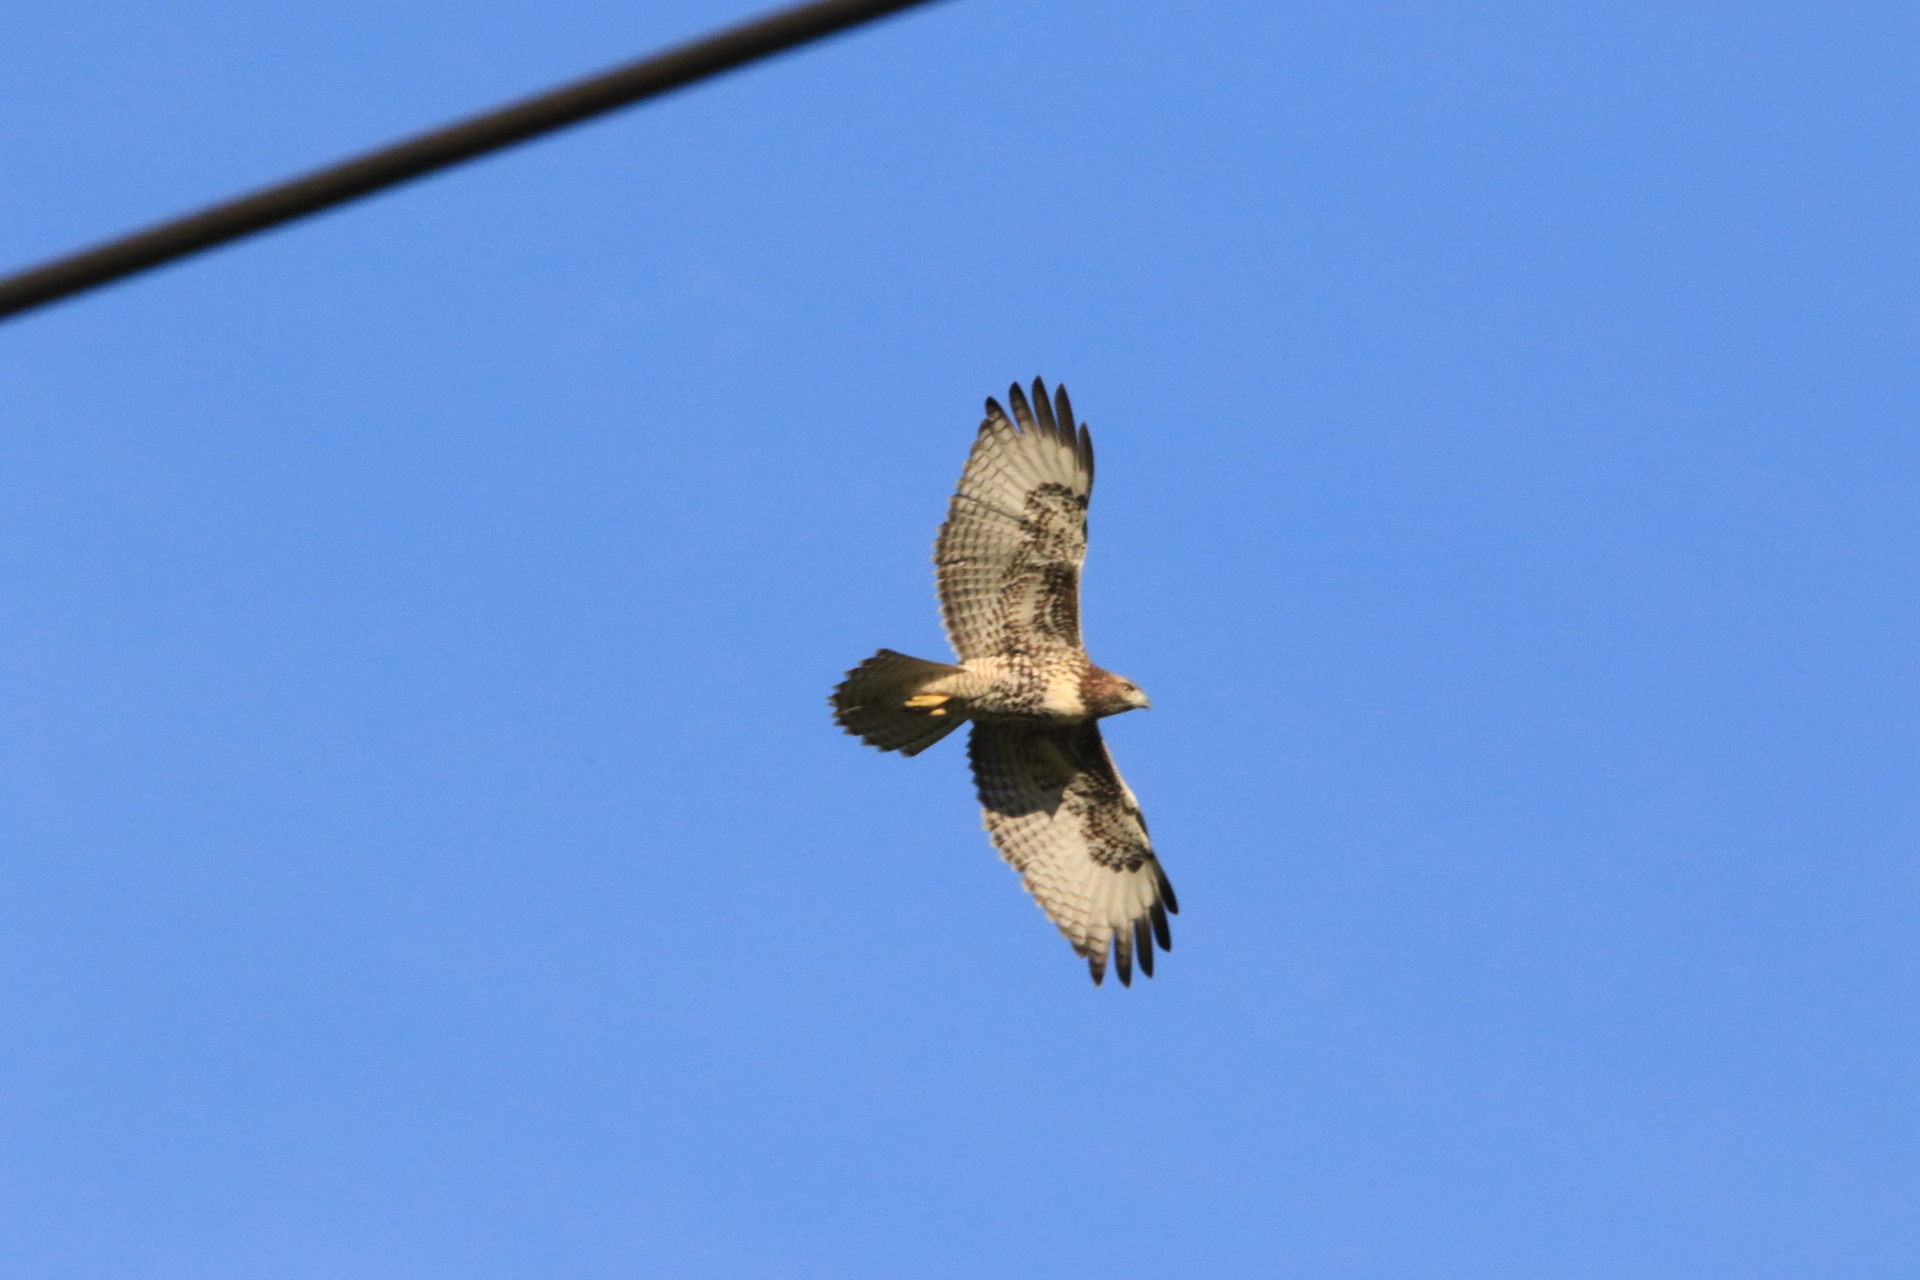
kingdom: Animalia
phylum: Chordata
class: Aves
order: Accipitriformes
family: Accipitridae
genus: Buteo
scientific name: Buteo jamaicensis
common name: Red-tailed hawk
